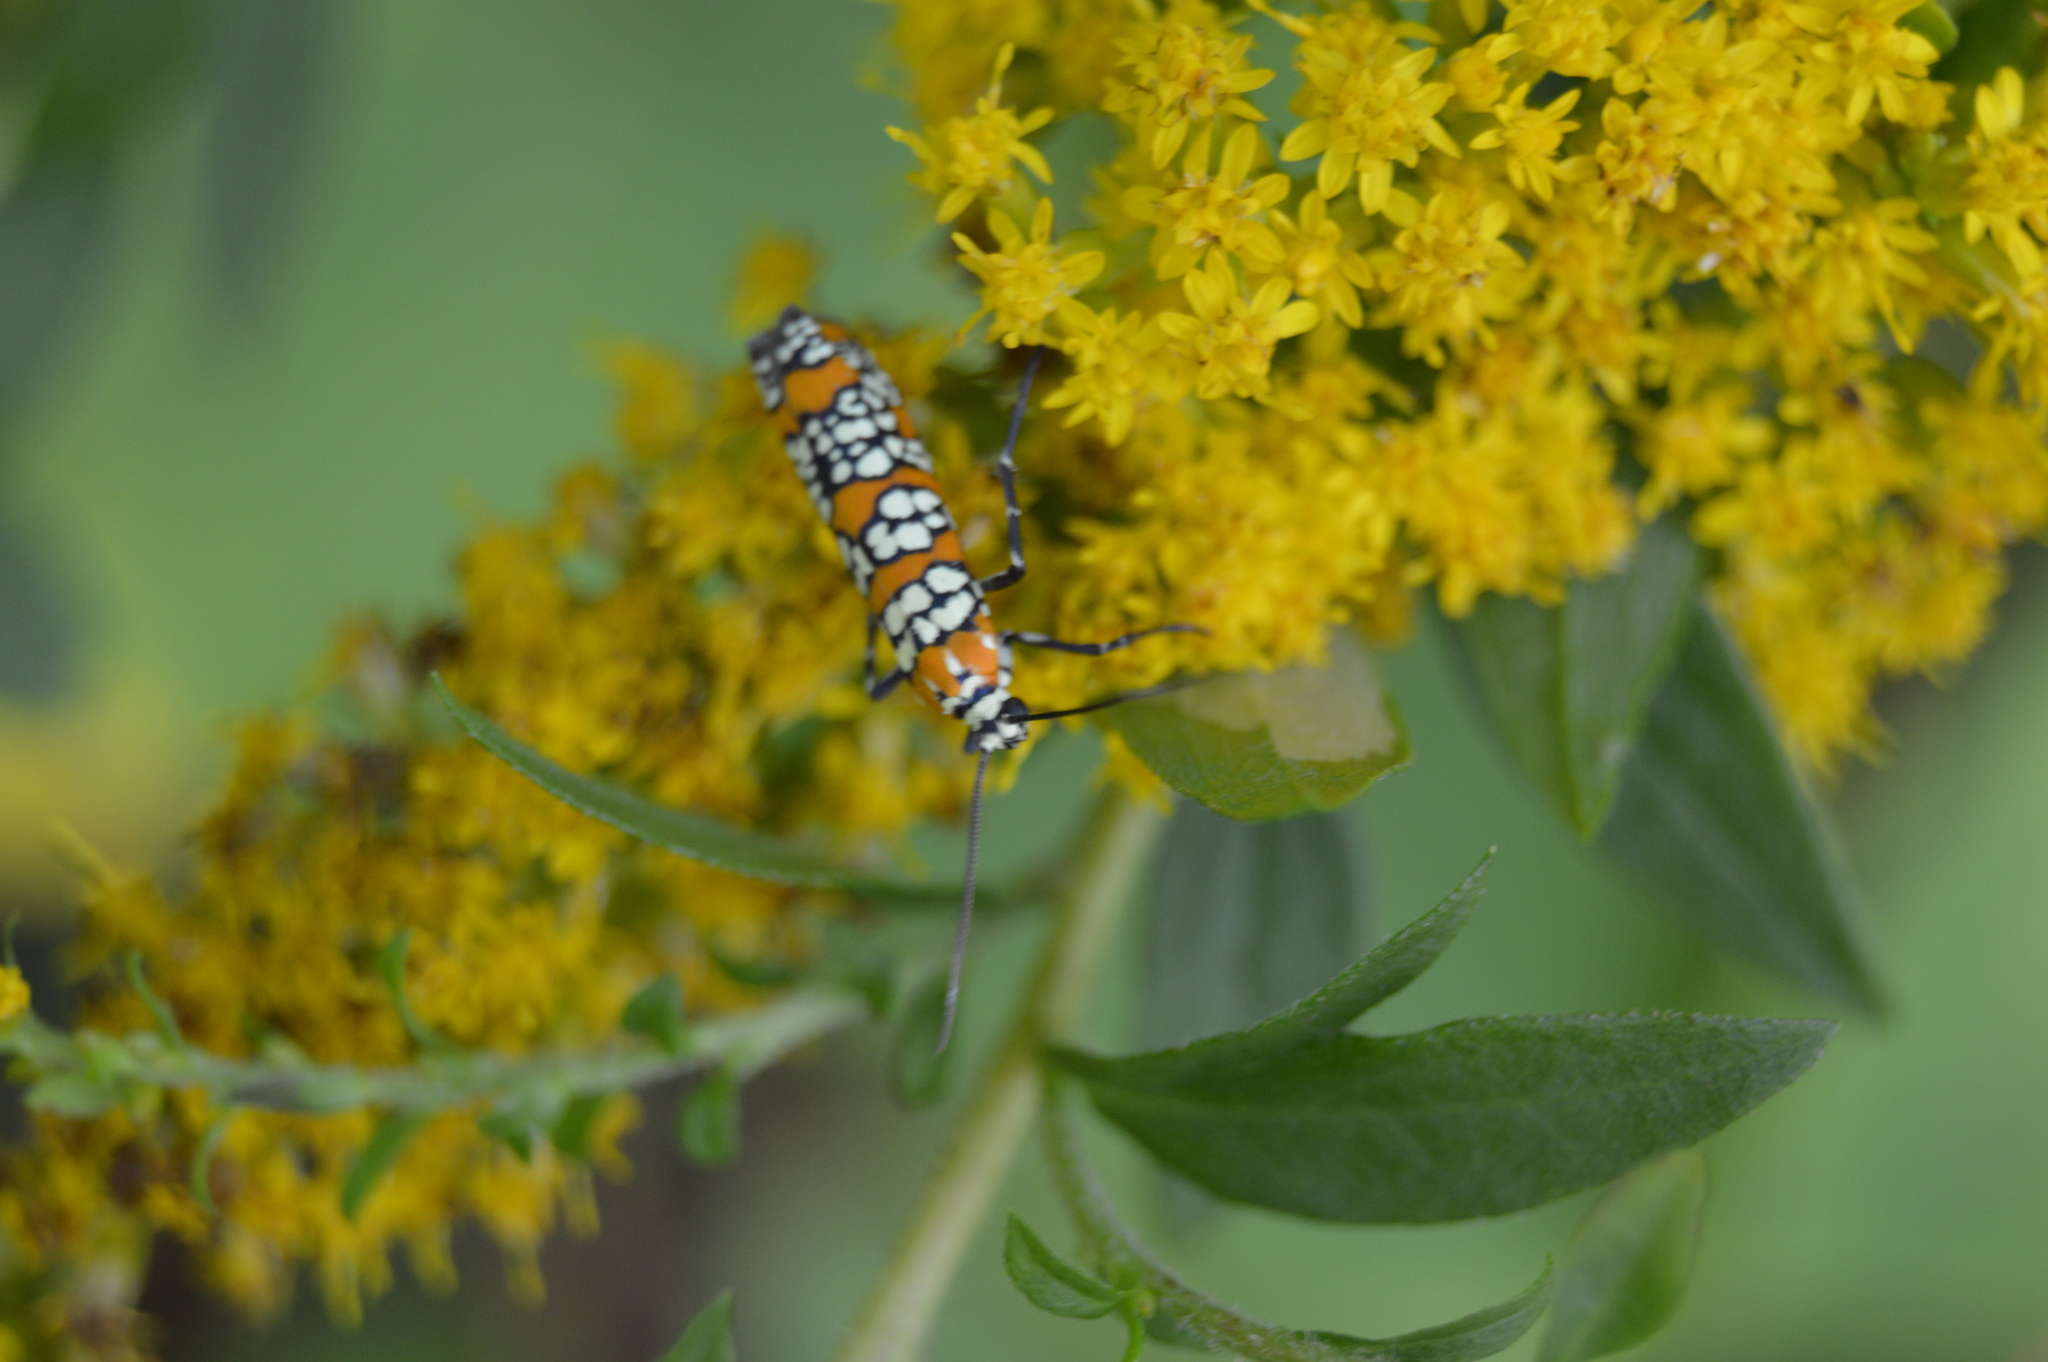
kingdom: Animalia
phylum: Arthropoda
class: Insecta
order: Lepidoptera
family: Attevidae
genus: Atteva
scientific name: Atteva punctella
